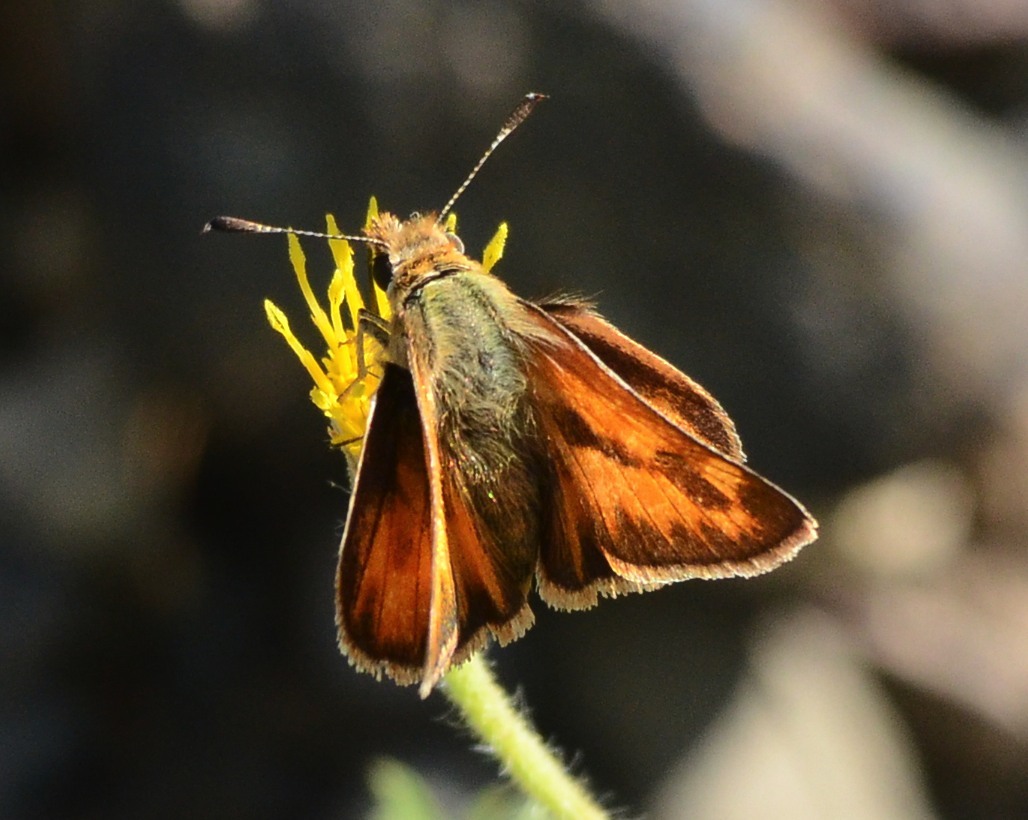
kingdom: Animalia
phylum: Arthropoda
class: Insecta
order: Lepidoptera
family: Hesperiidae
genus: Ochlodes
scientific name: Ochlodes sylvanoides
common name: Woodland skipper
